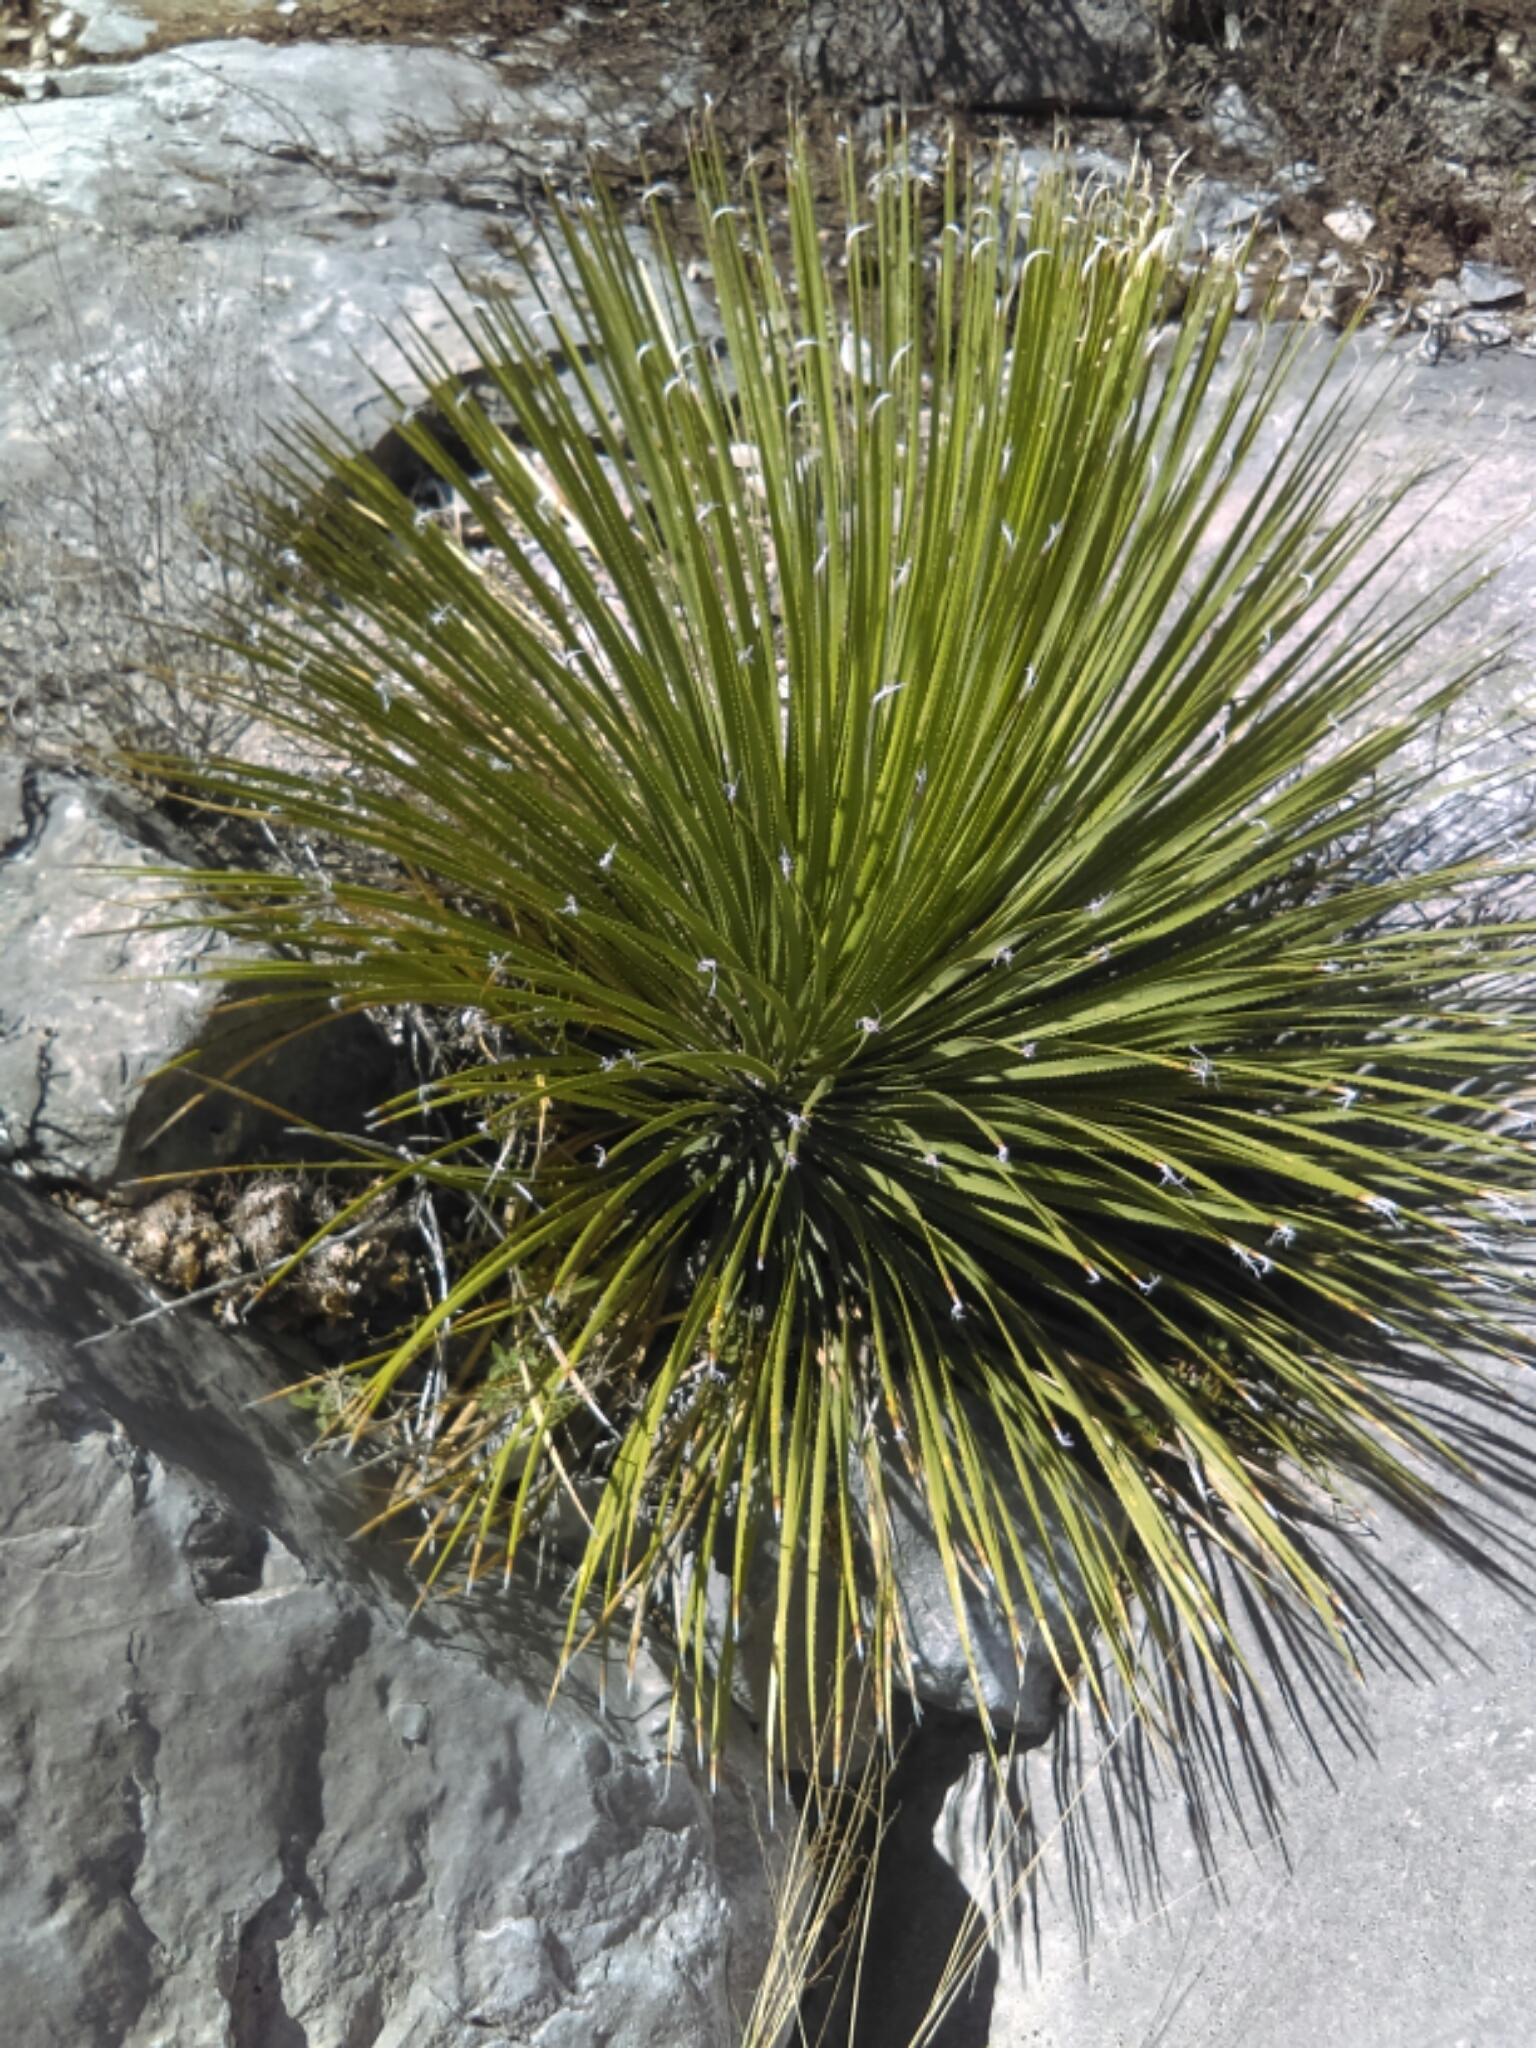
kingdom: Plantae
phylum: Tracheophyta
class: Liliopsida
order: Asparagales
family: Asparagaceae
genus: Dasylirion
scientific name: Dasylirion acrotrichum
